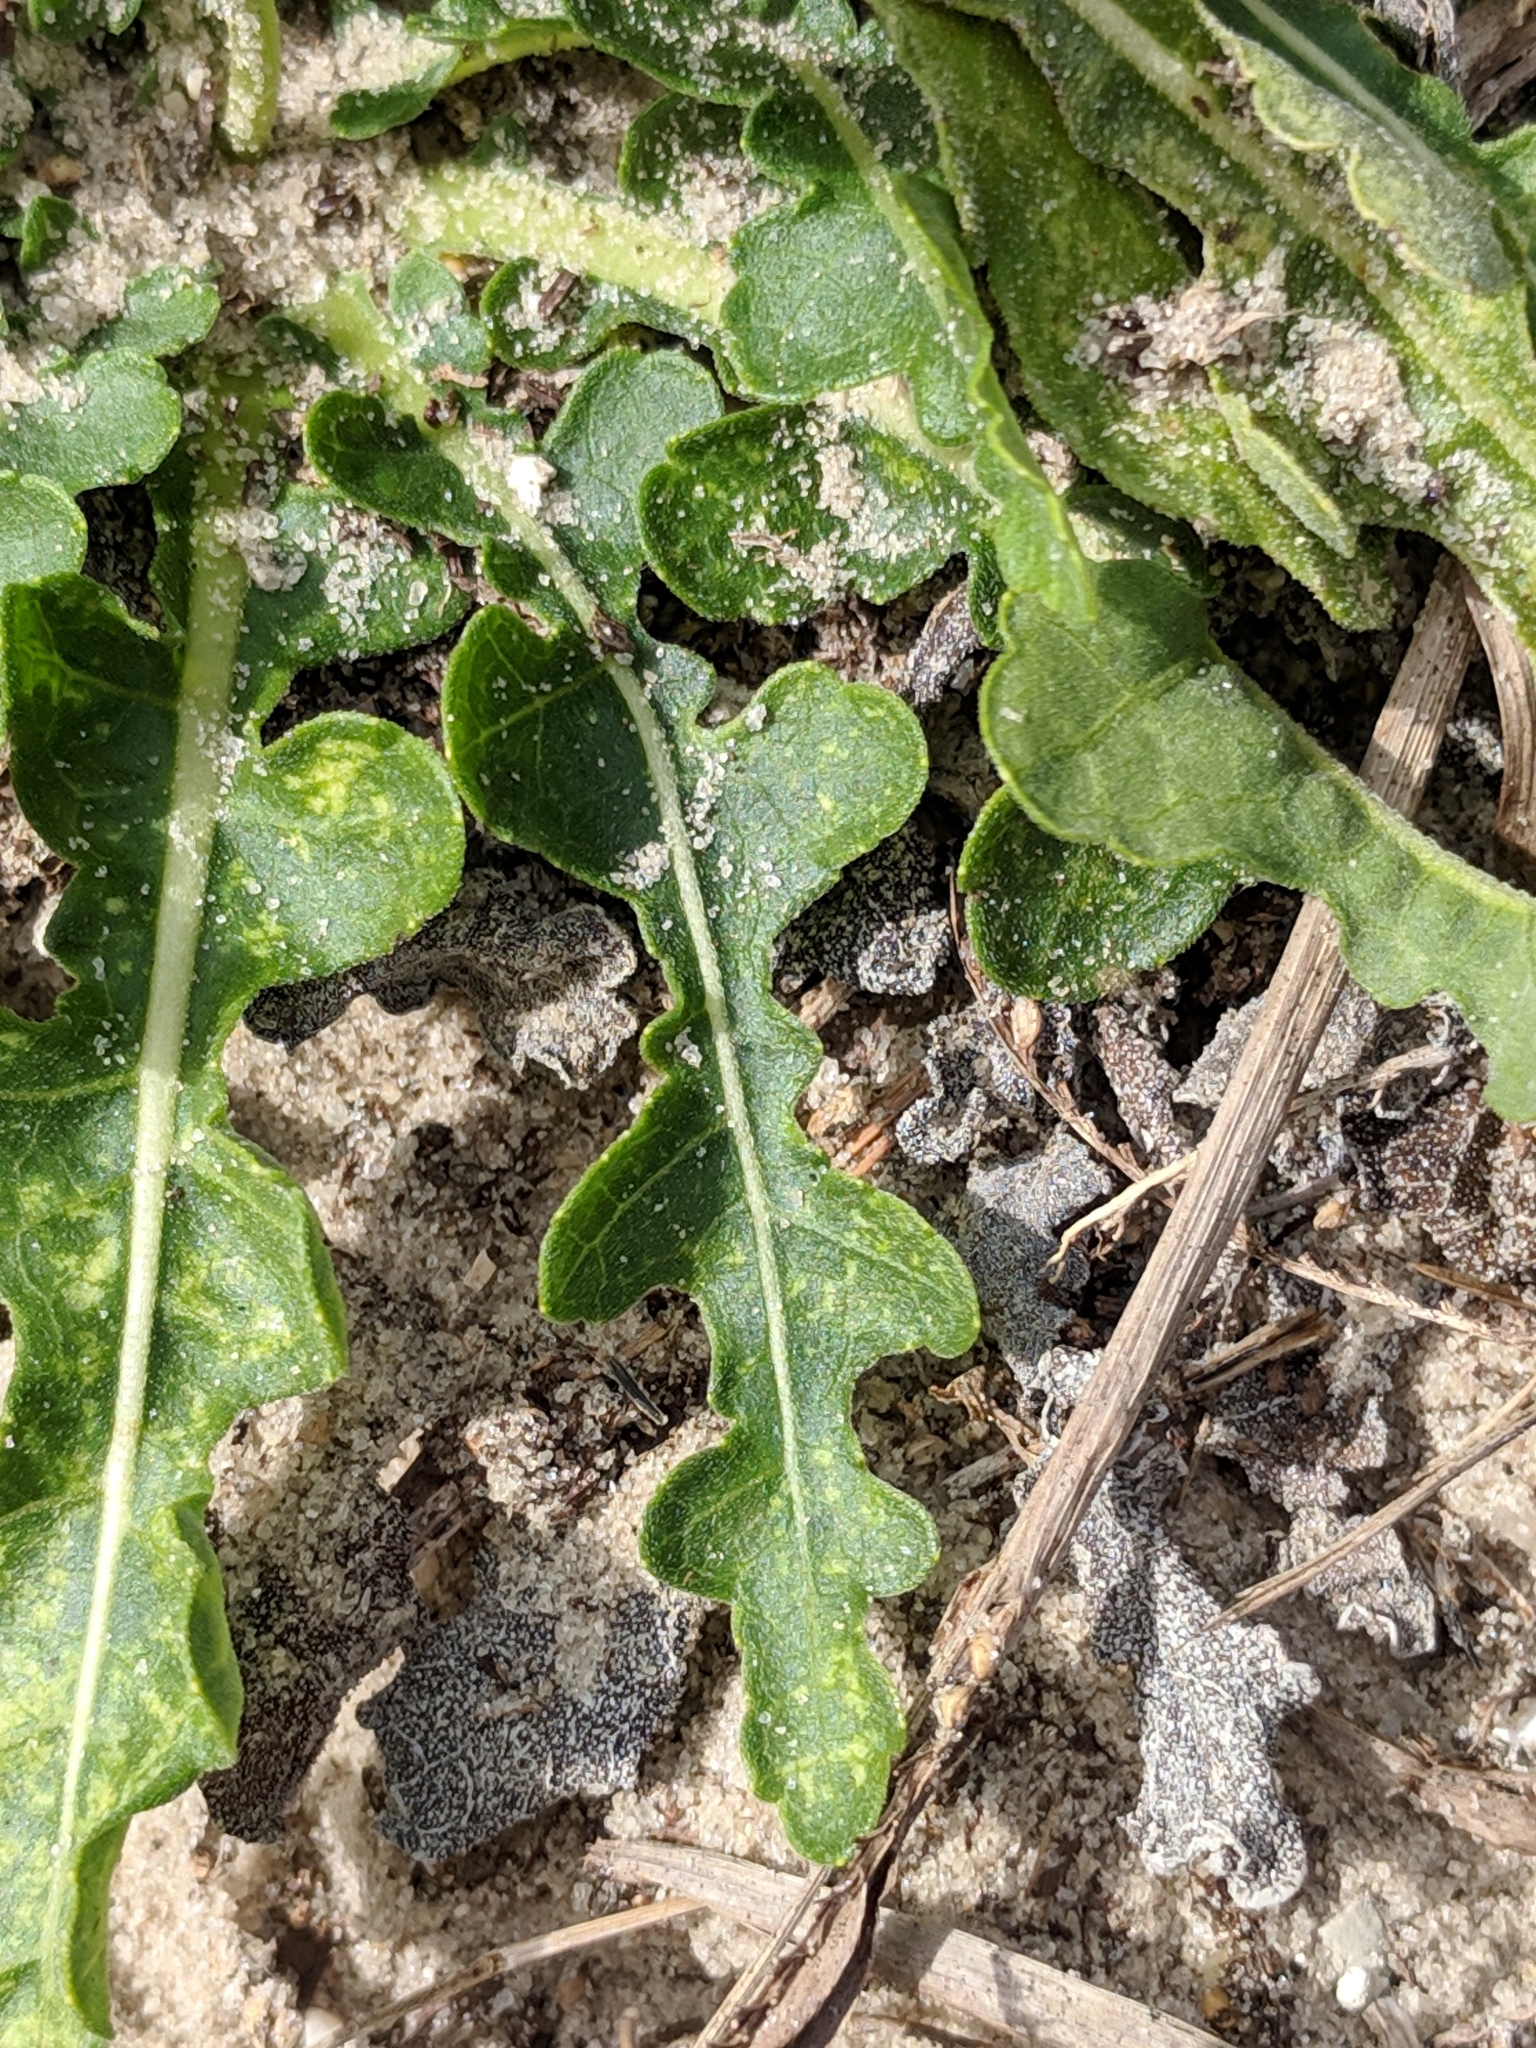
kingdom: Plantae
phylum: Tracheophyta
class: Magnoliopsida
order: Asterales
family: Asteraceae
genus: Berlandiera
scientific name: Berlandiera subacaulis
